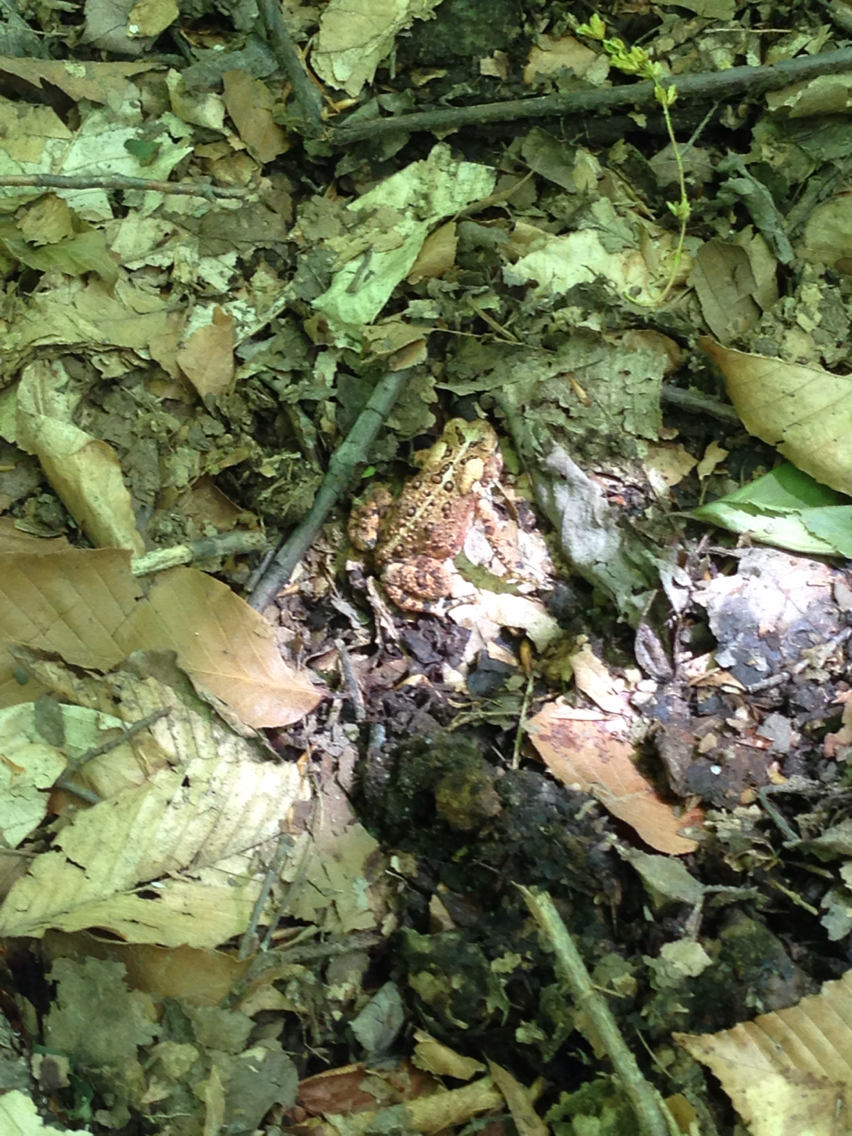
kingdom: Animalia
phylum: Chordata
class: Amphibia
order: Anura
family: Bufonidae
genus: Anaxyrus
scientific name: Anaxyrus americanus
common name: American toad
